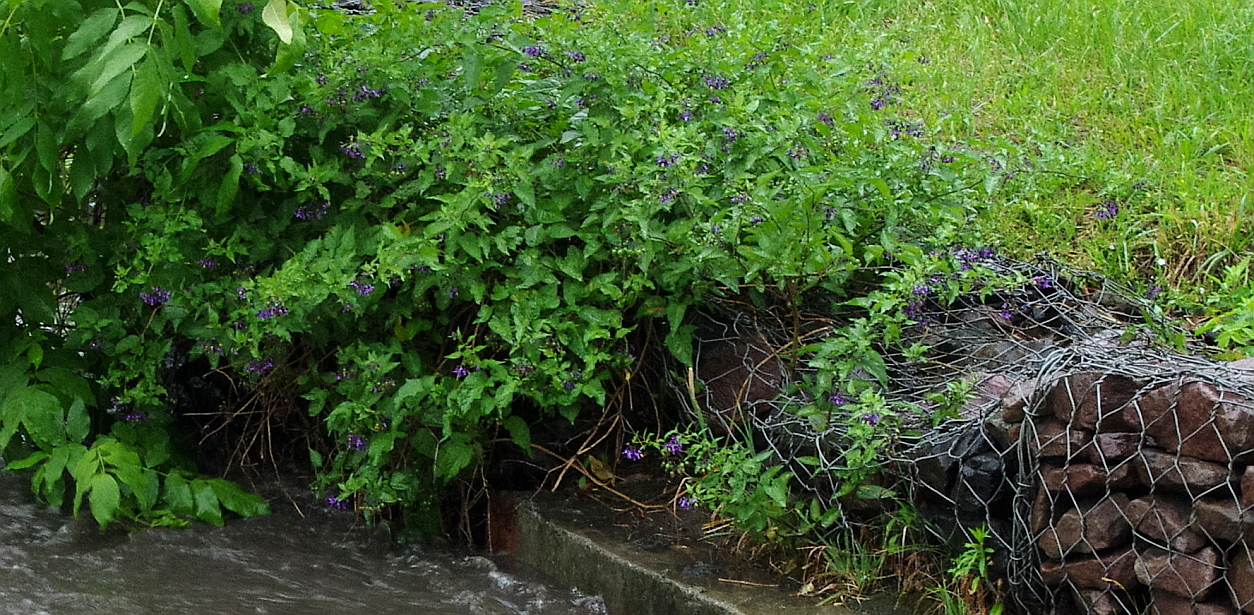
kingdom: Plantae
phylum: Tracheophyta
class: Magnoliopsida
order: Solanales
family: Solanaceae
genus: Solanum
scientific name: Solanum dulcamara
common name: Climbing nightshade
